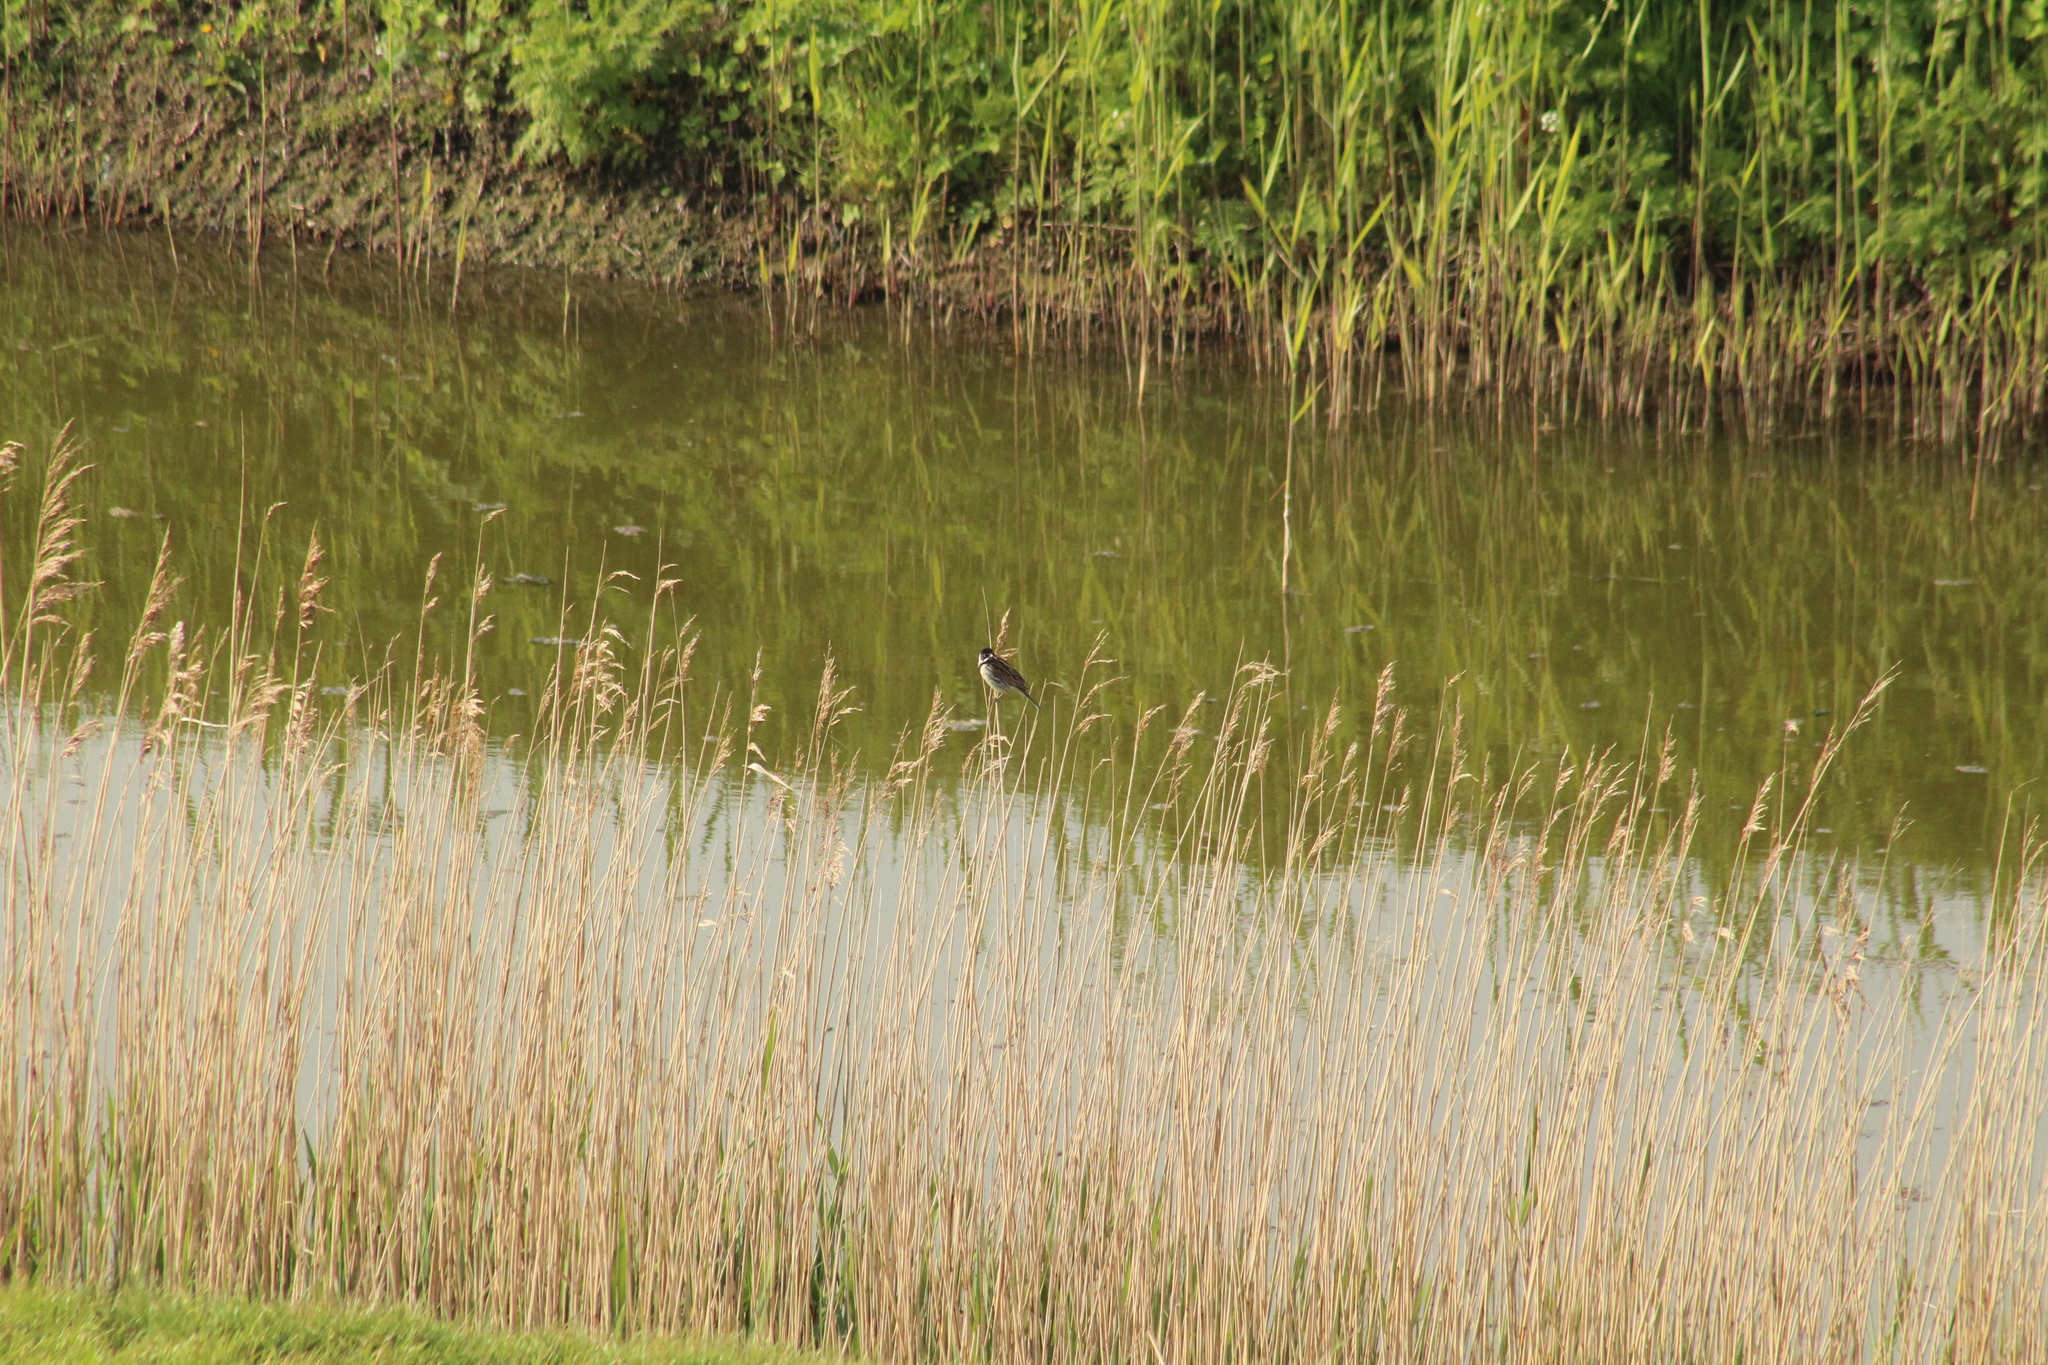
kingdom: Animalia
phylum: Chordata
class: Aves
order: Passeriformes
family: Emberizidae
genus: Emberiza
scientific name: Emberiza schoeniclus
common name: Reed bunting
